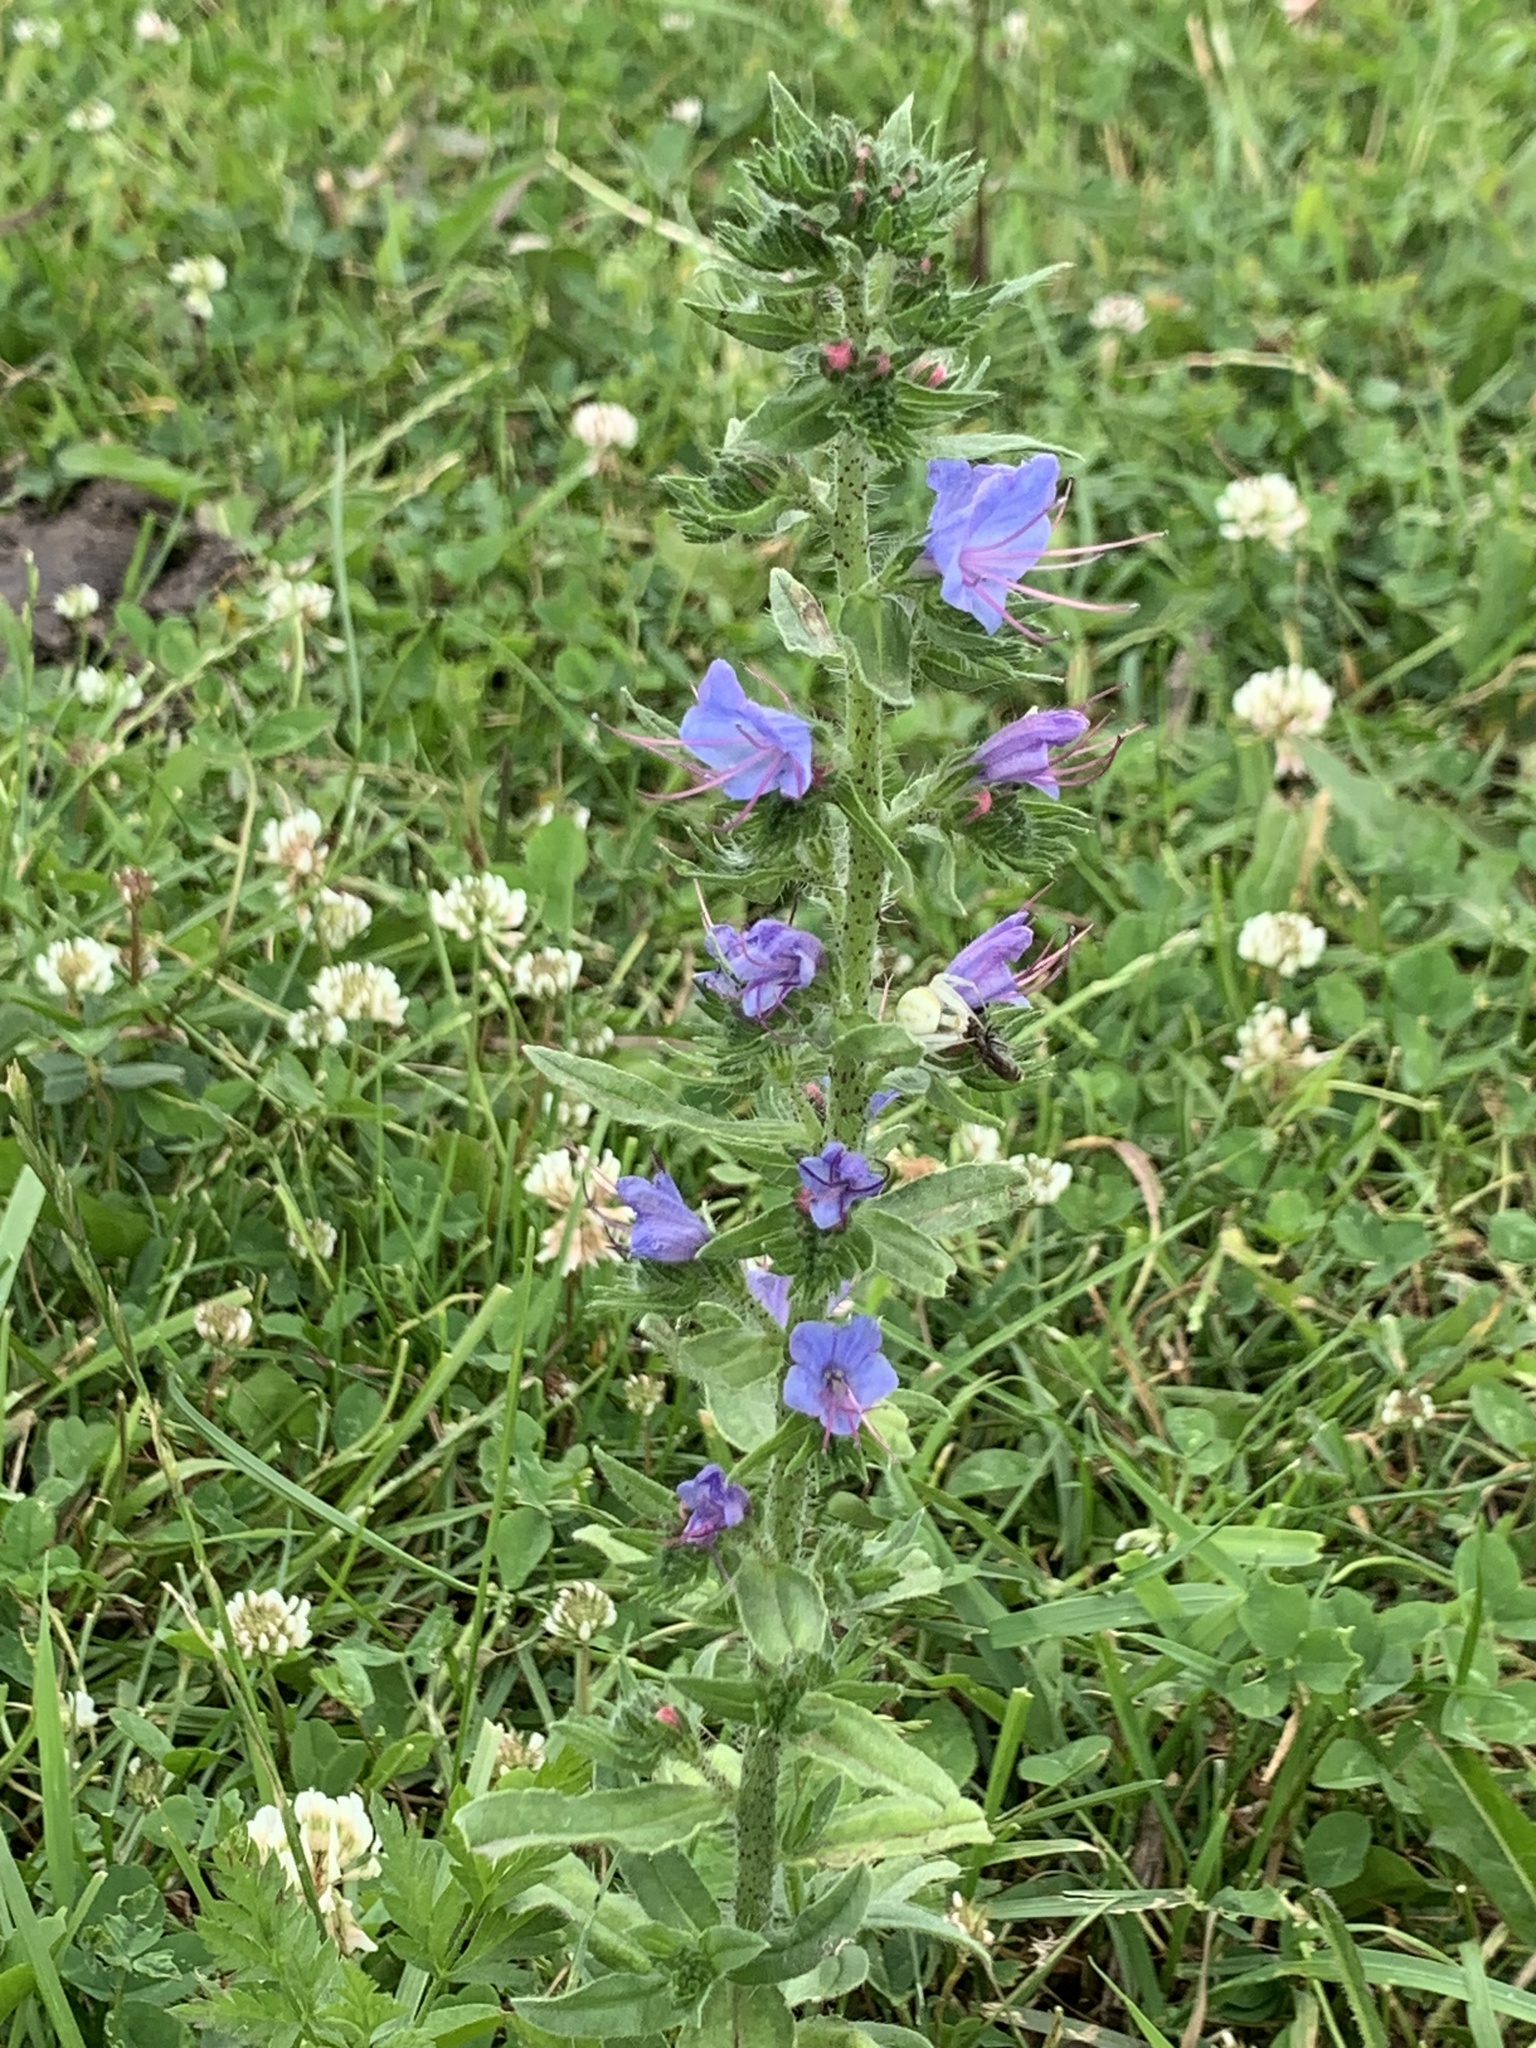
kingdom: Plantae
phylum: Tracheophyta
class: Magnoliopsida
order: Boraginales
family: Boraginaceae
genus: Echium
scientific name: Echium vulgare
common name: Common viper's bugloss
